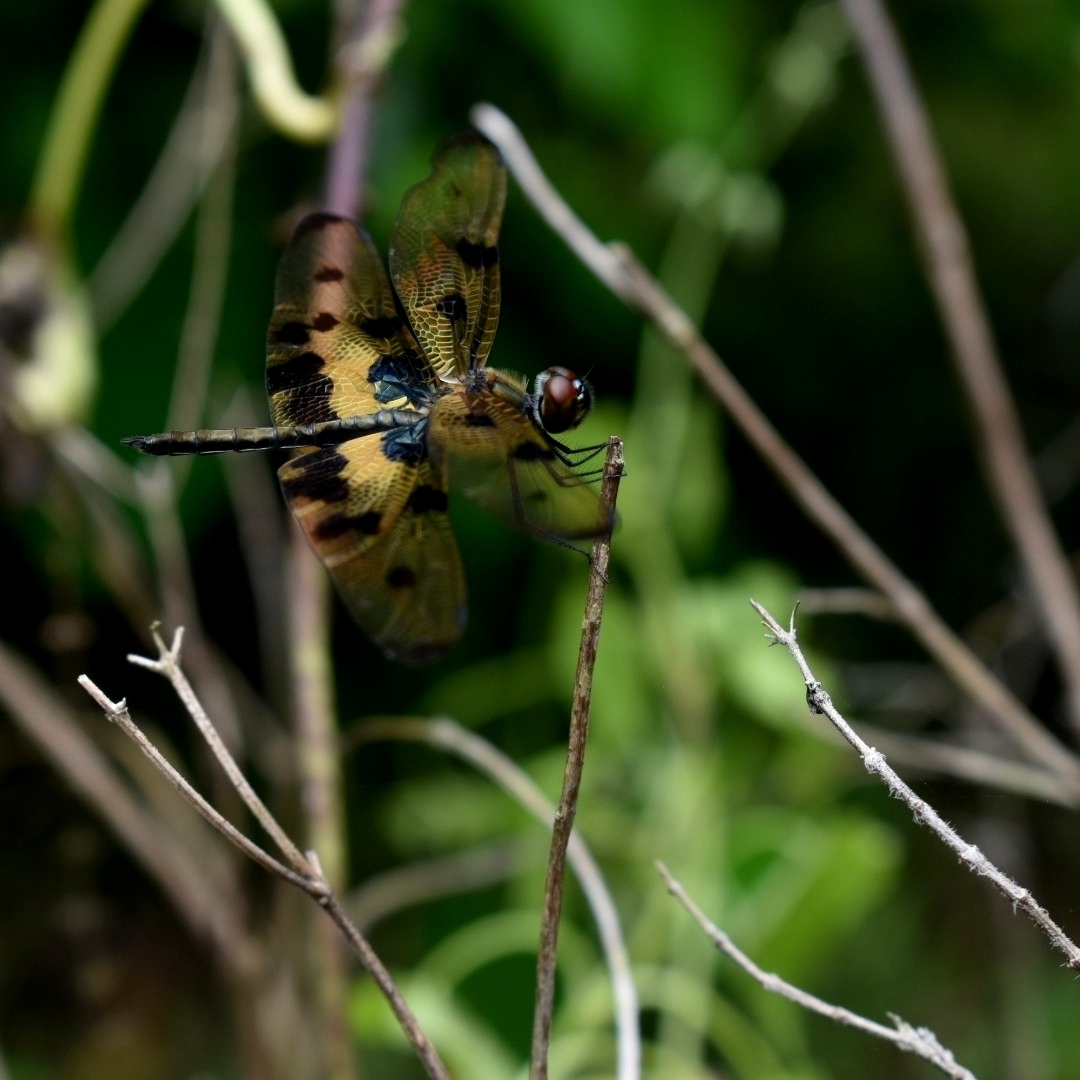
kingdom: Animalia
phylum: Arthropoda
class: Insecta
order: Odonata
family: Libellulidae
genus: Rhyothemis
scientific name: Rhyothemis variegata
